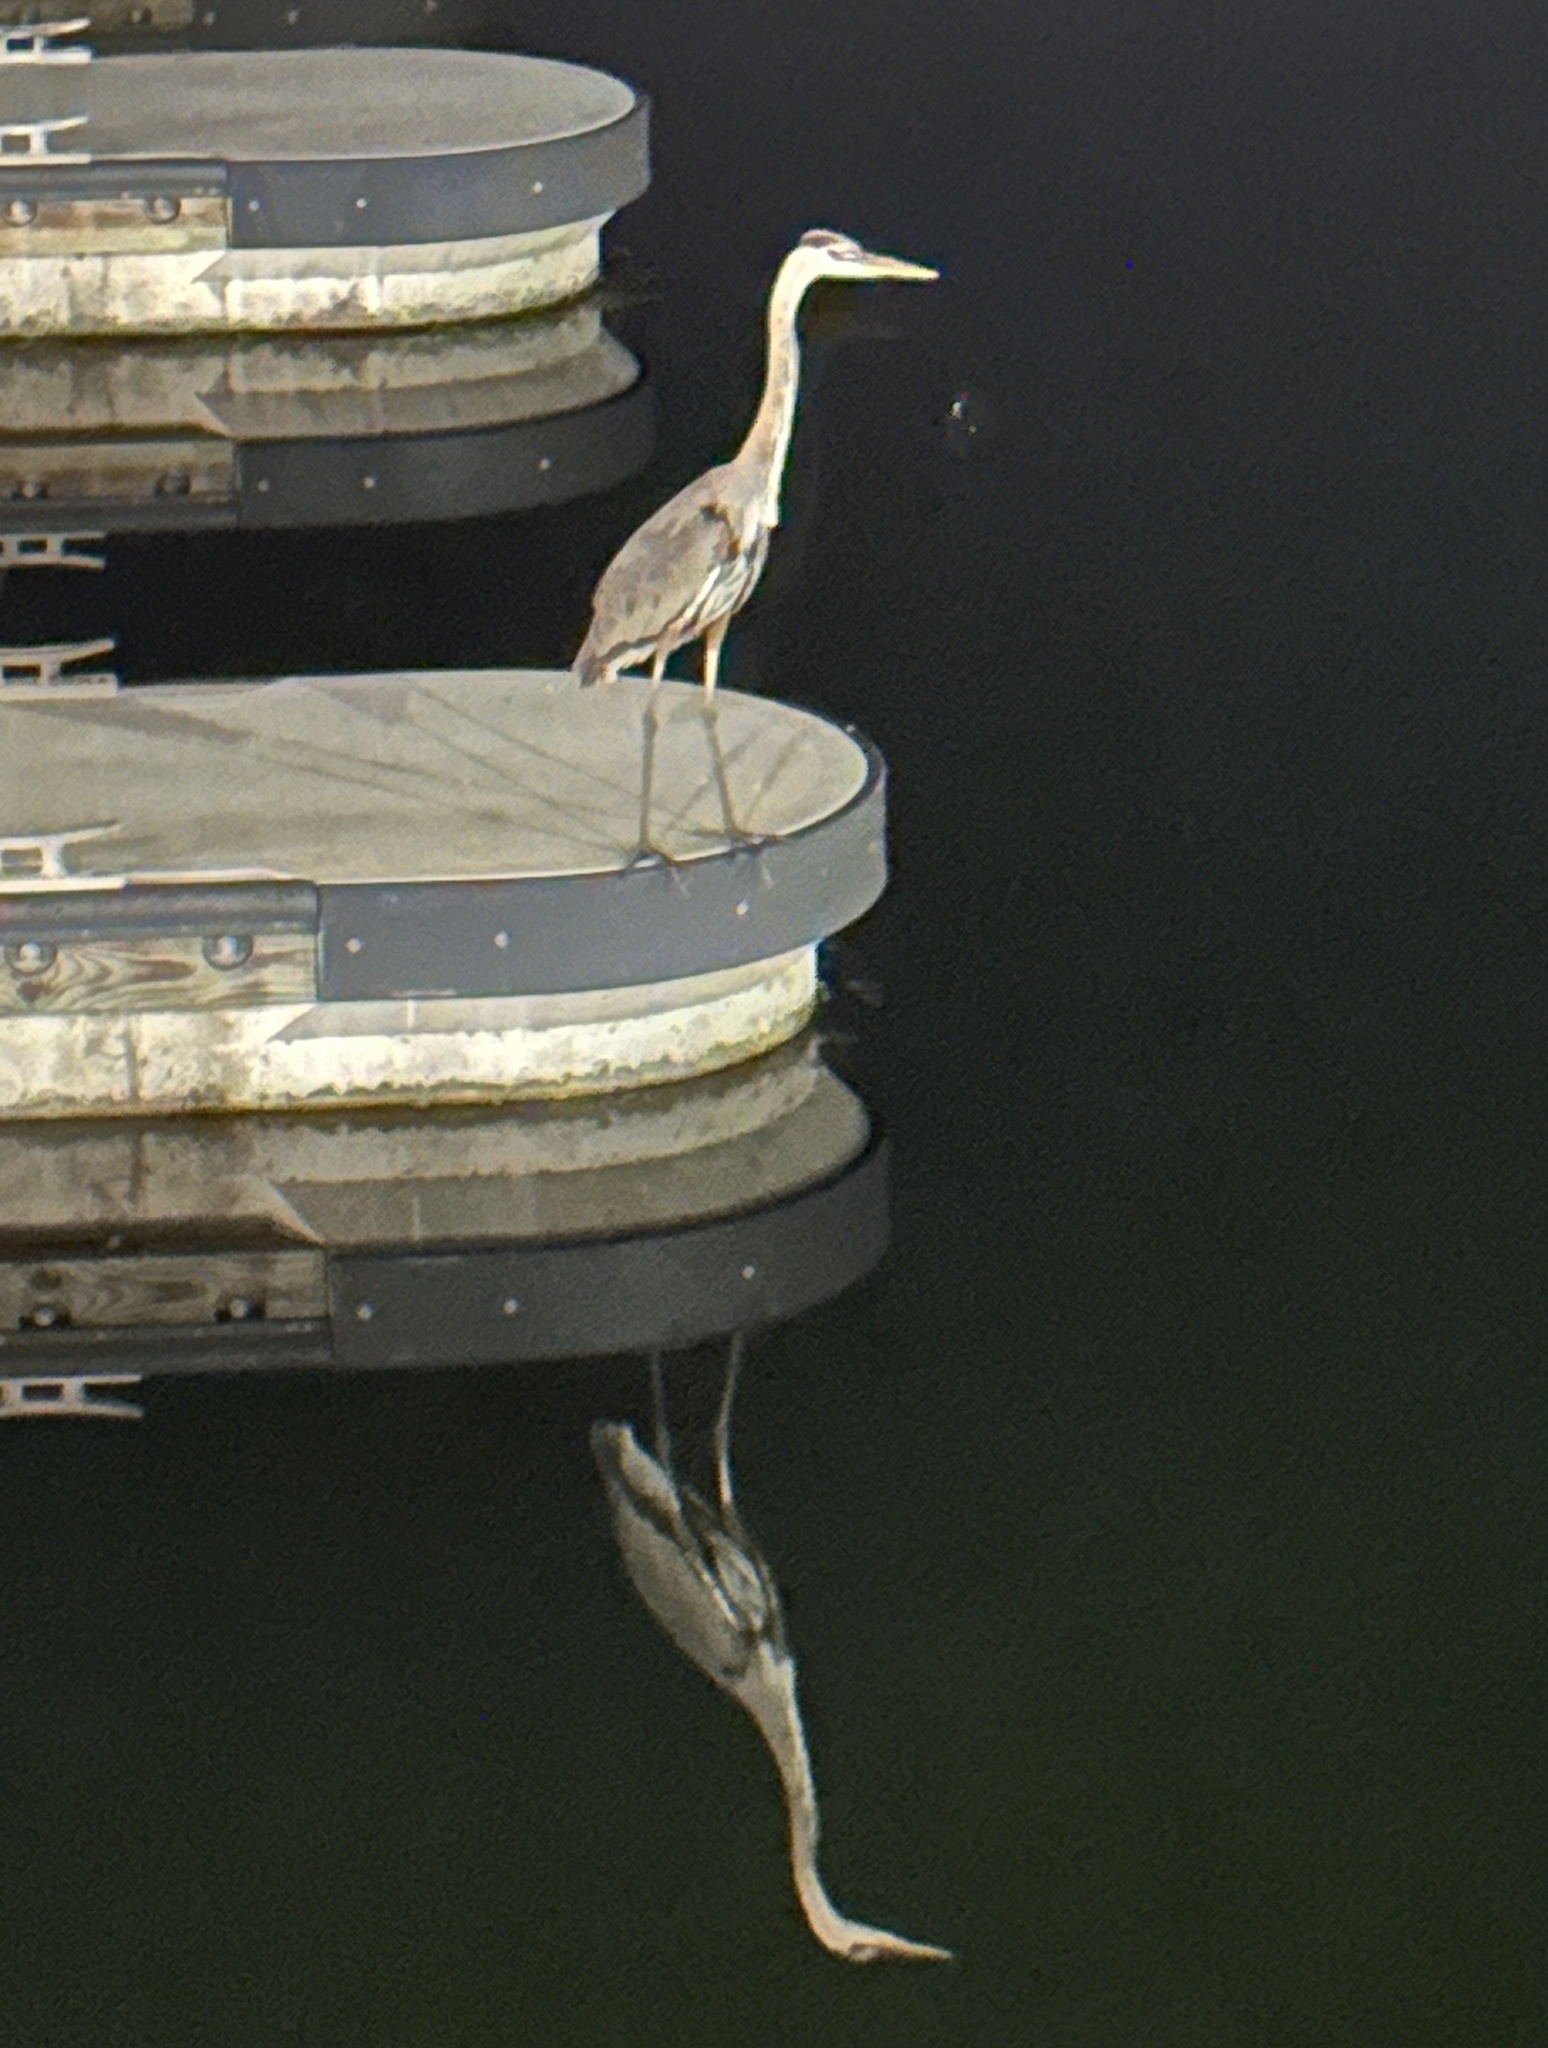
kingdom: Animalia
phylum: Chordata
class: Aves
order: Pelecaniformes
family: Ardeidae
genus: Ardea
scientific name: Ardea herodias
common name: Great blue heron
